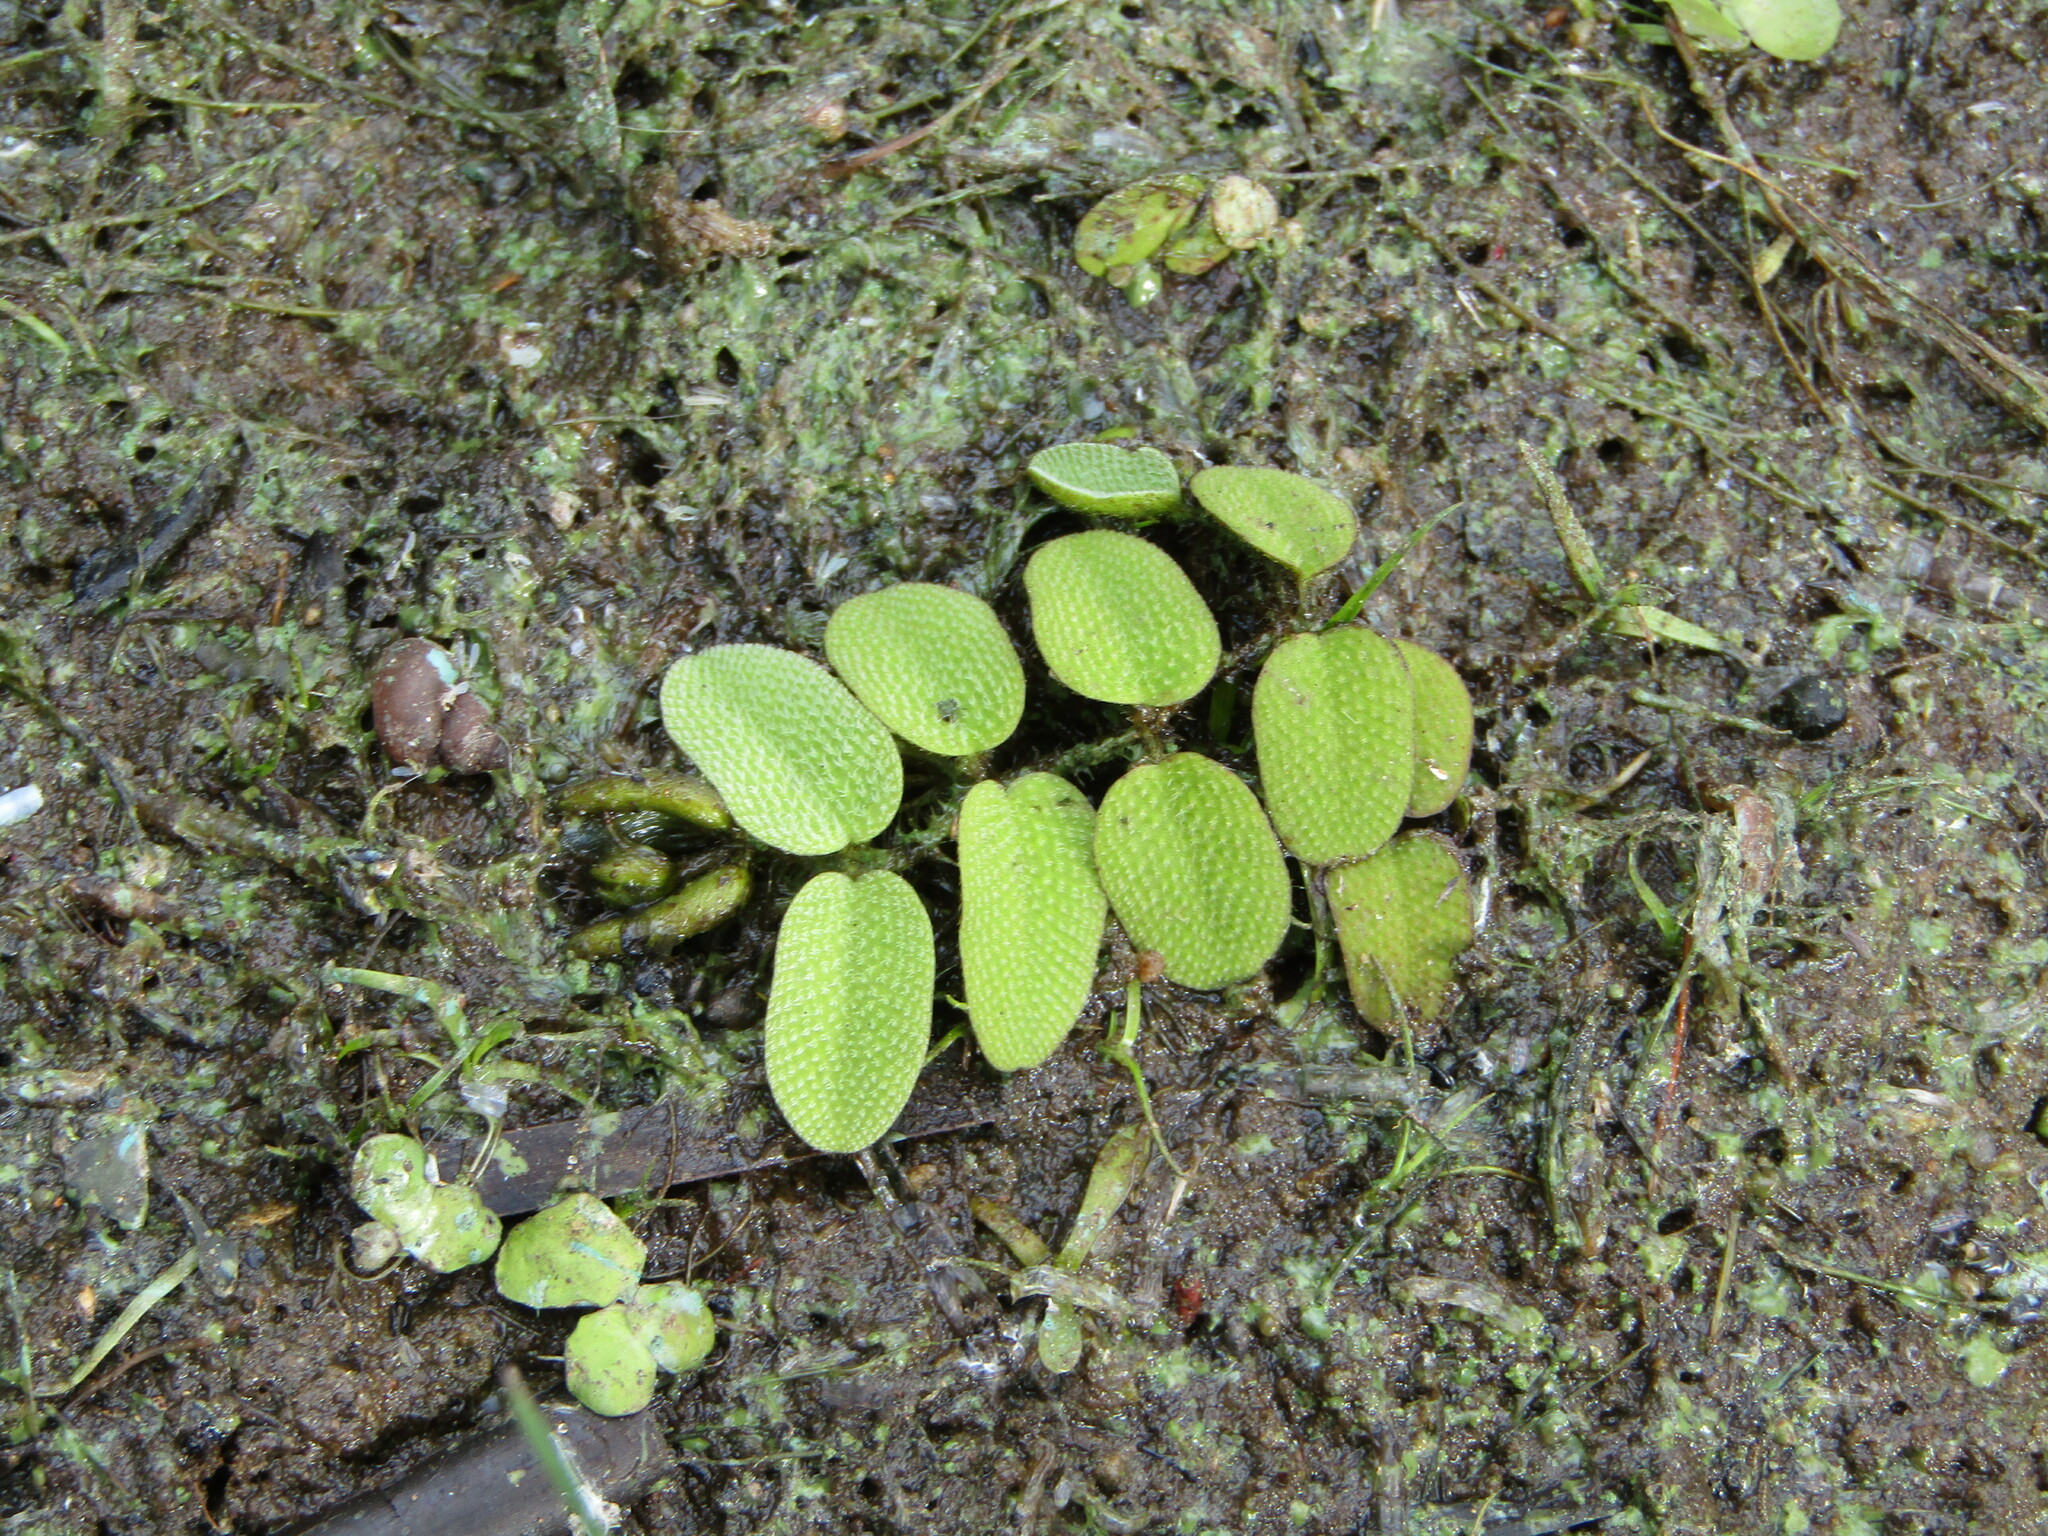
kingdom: Plantae
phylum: Tracheophyta
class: Polypodiopsida
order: Salviniales
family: Salviniaceae
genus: Salvinia
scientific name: Salvinia natans
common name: Floating fern
